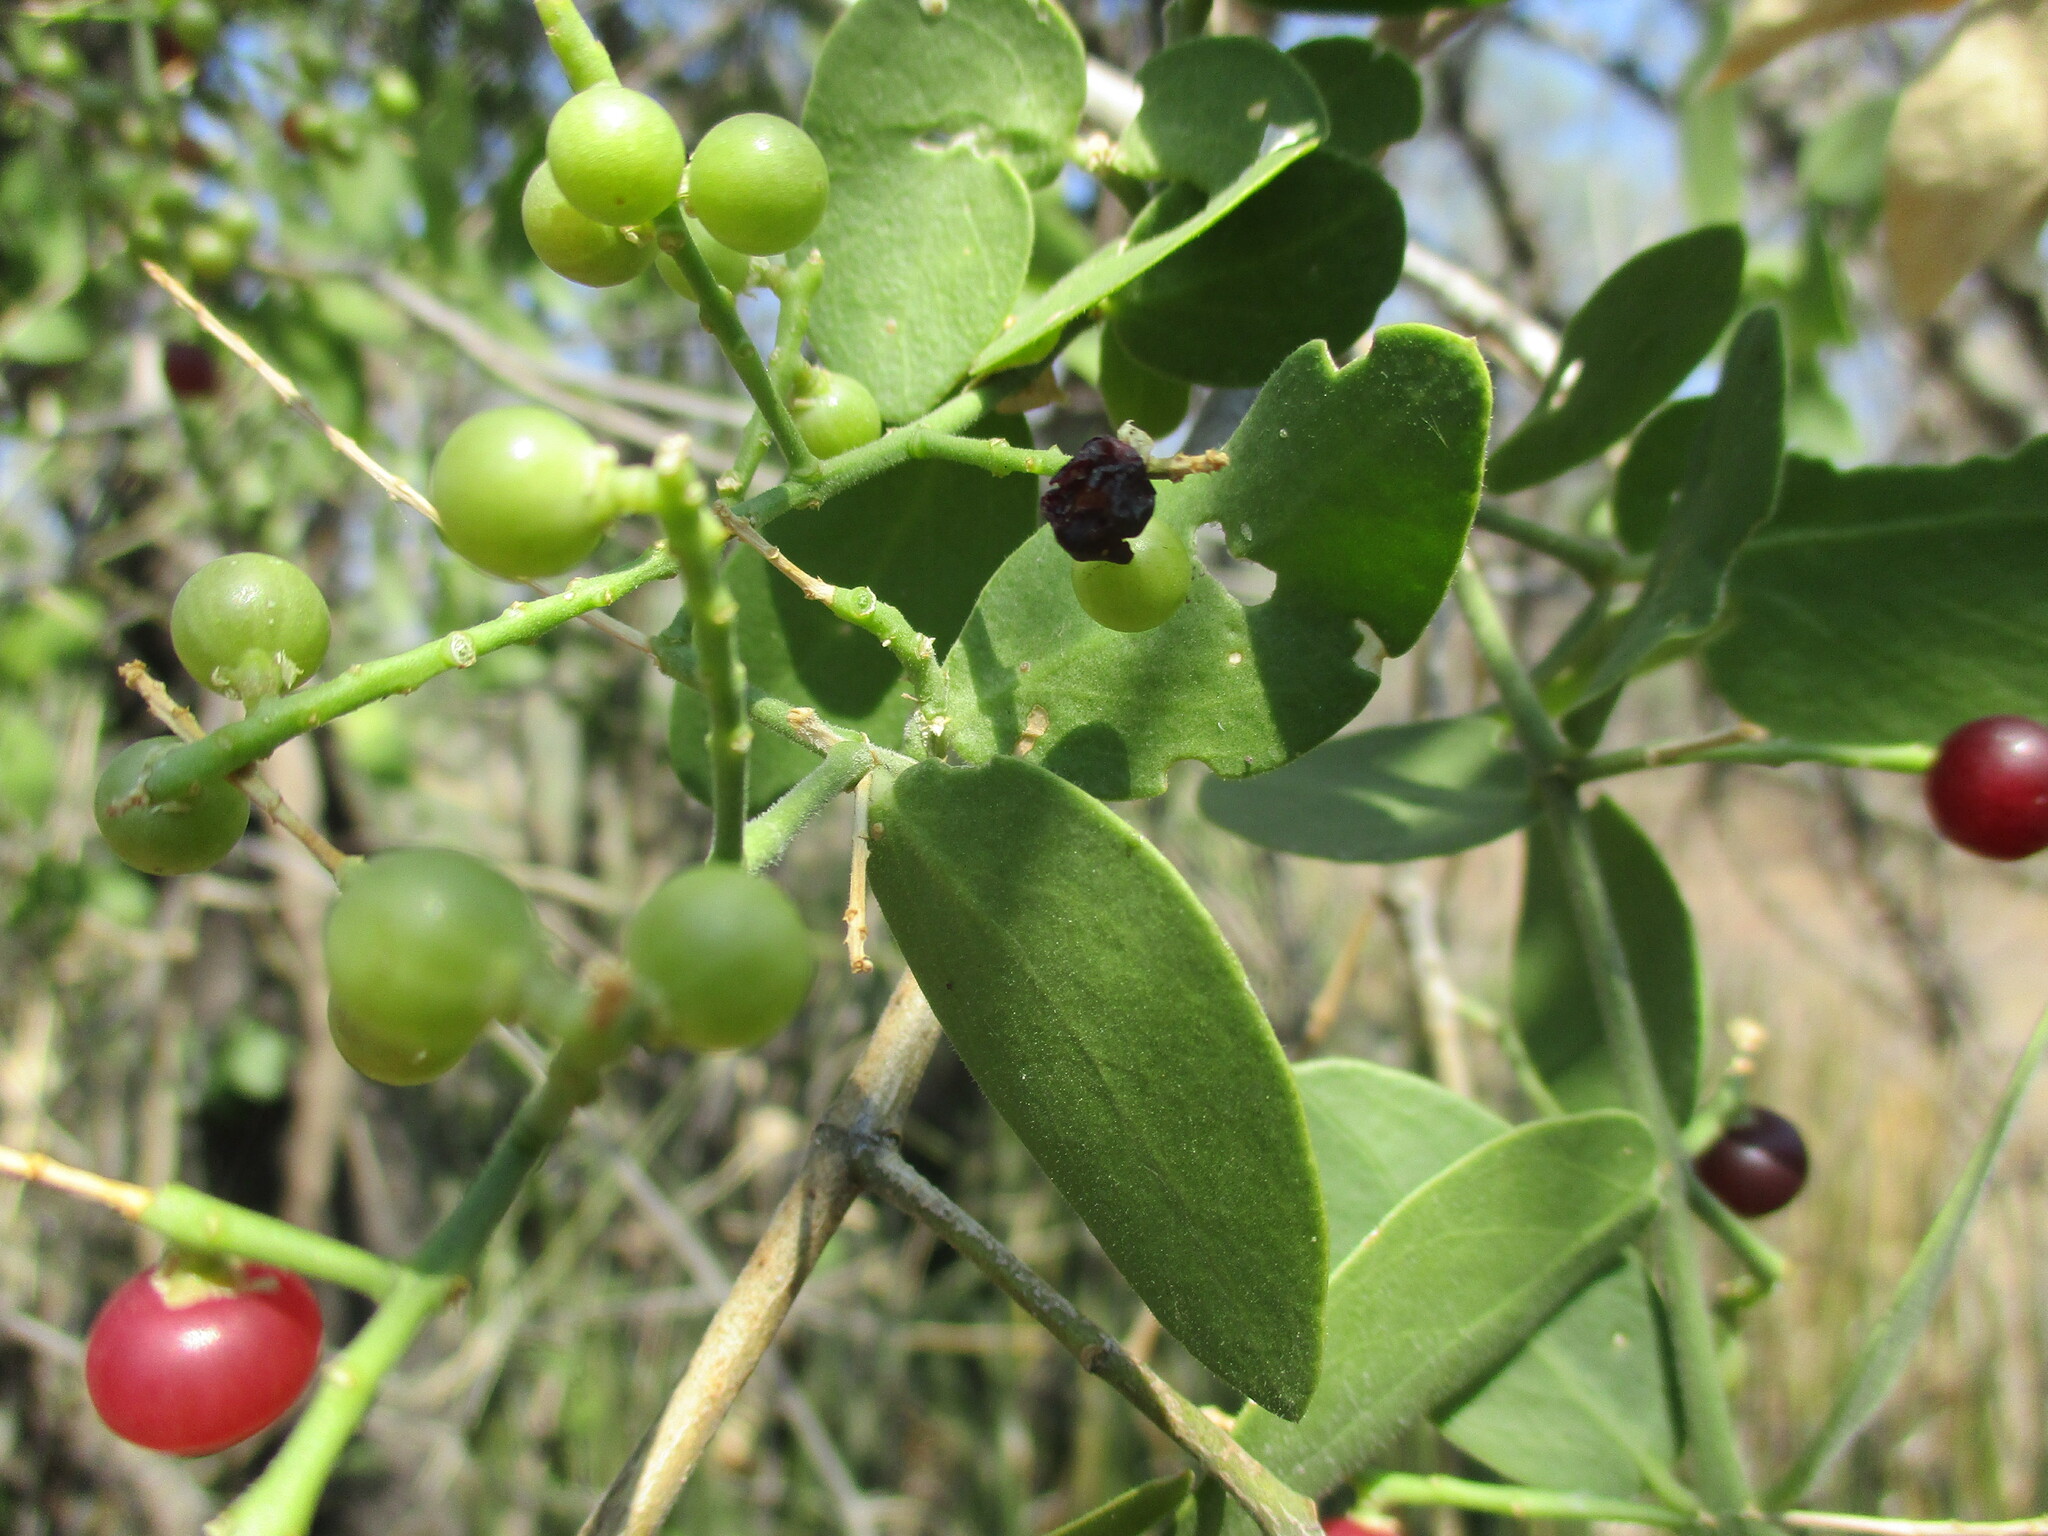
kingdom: Plantae
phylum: Tracheophyta
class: Magnoliopsida
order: Brassicales
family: Salvadoraceae
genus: Salvadora
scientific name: Salvadora persica
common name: Toothbrushtree
